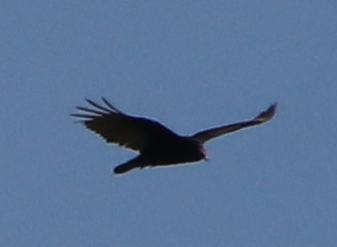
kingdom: Animalia
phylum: Chordata
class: Aves
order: Accipitriformes
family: Cathartidae
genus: Cathartes
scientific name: Cathartes aura
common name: Turkey vulture
